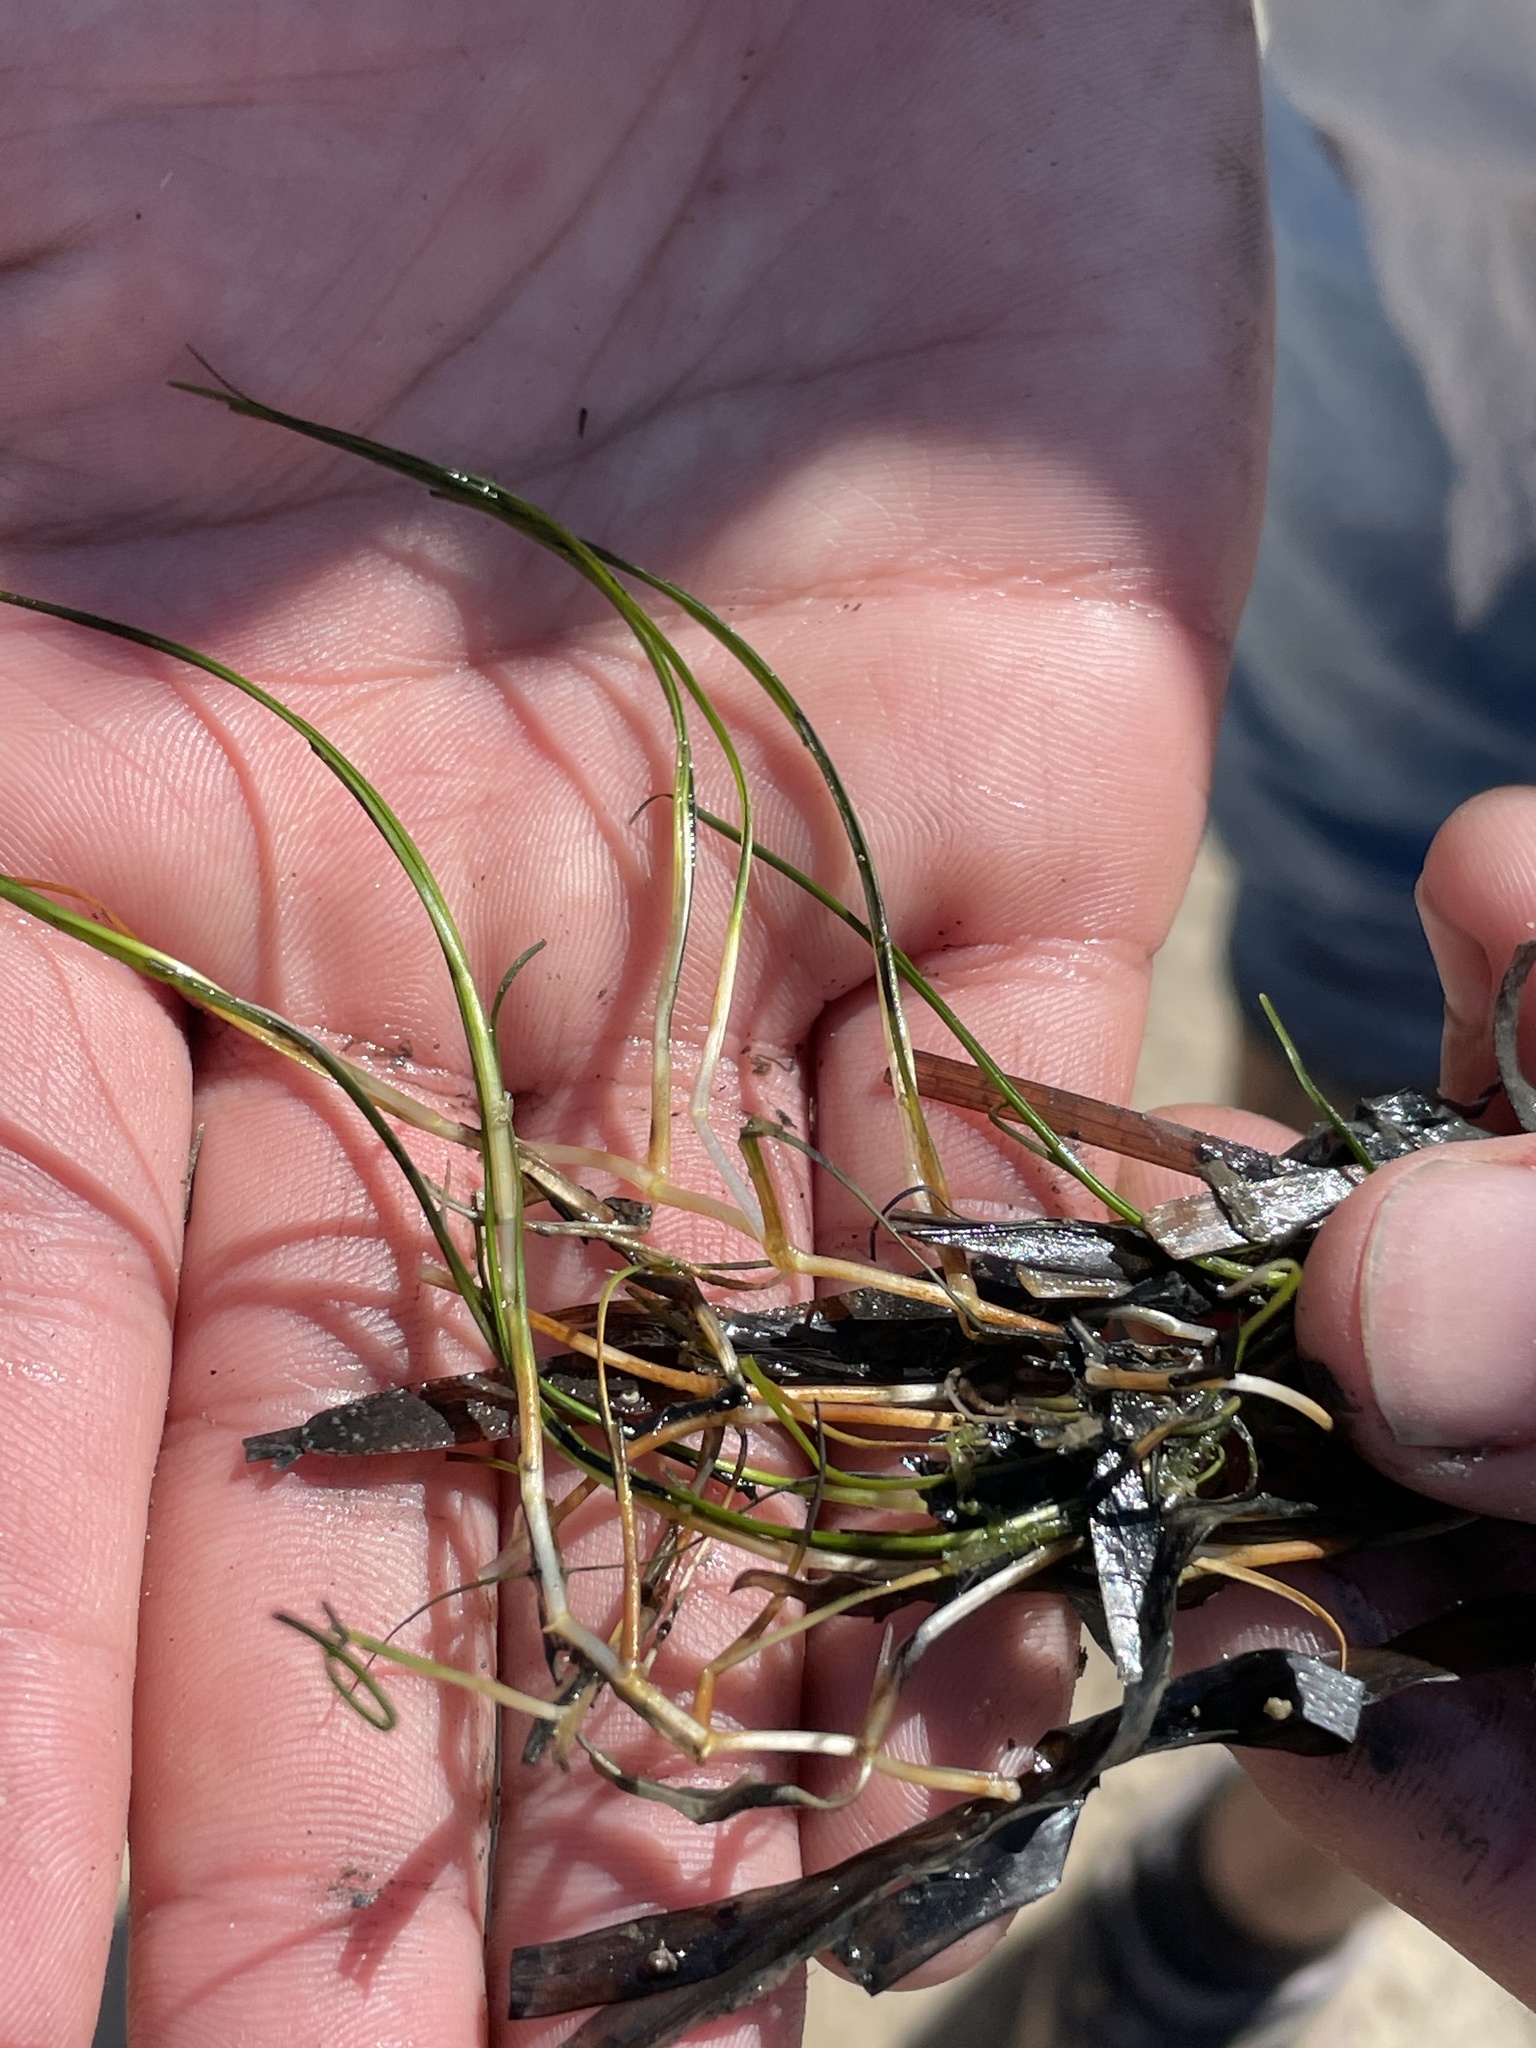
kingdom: Plantae
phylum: Tracheophyta
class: Liliopsida
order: Alismatales
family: Ruppiaceae
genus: Ruppia
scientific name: Ruppia maritima
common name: Beaked tasselweed
